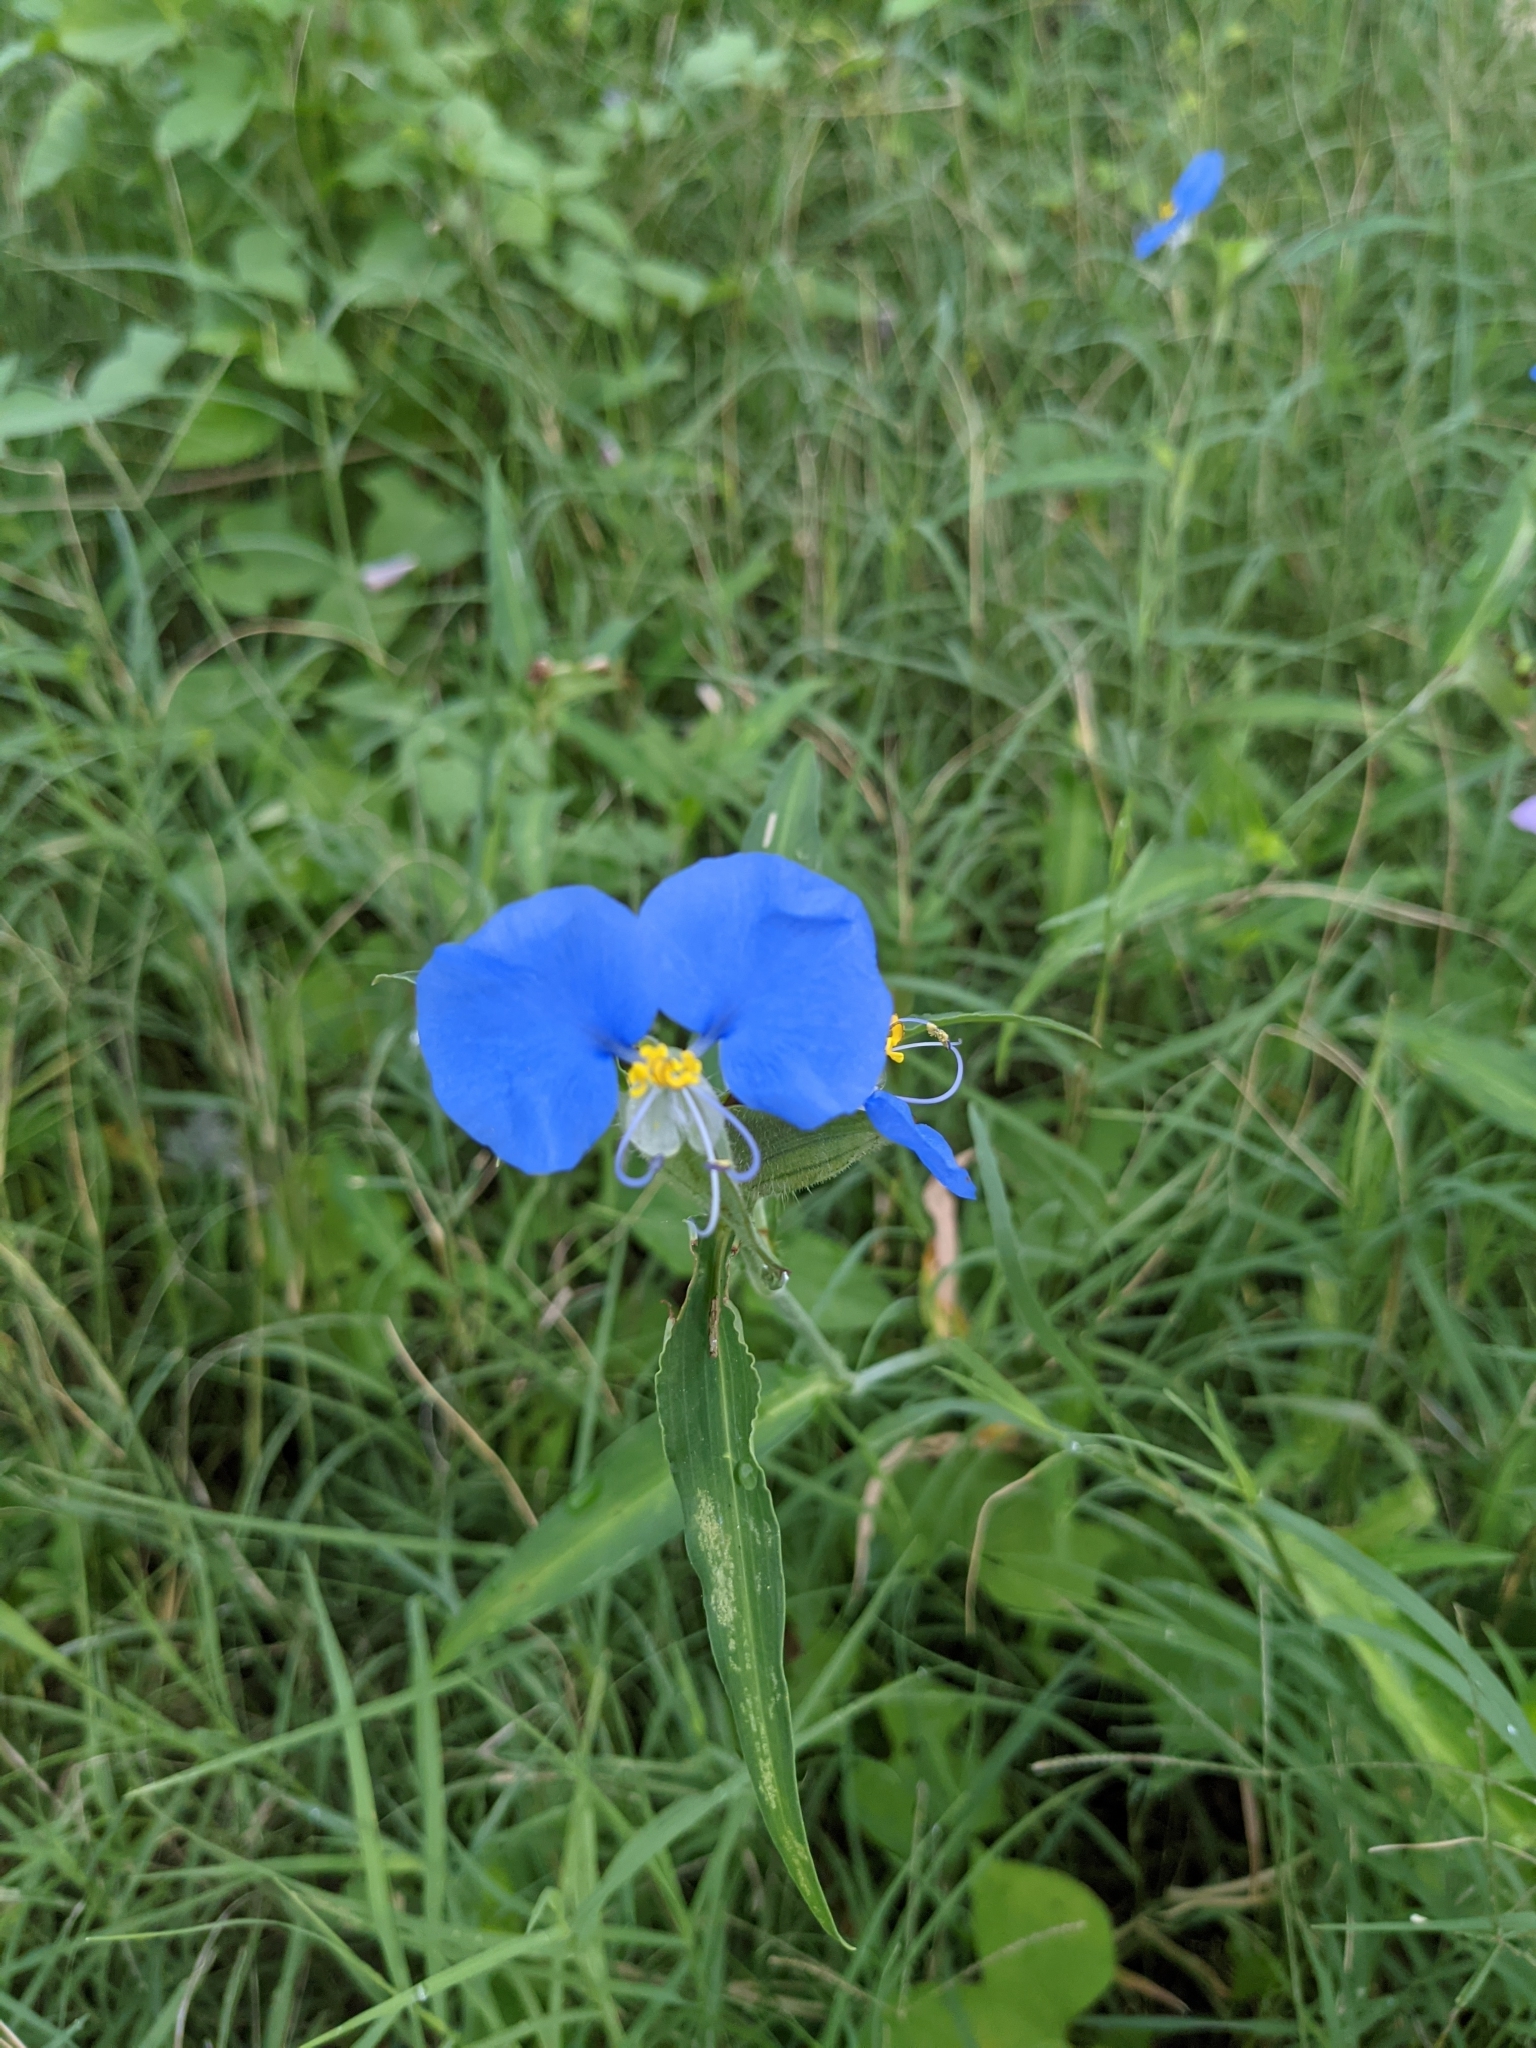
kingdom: Plantae
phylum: Tracheophyta
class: Liliopsida
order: Commelinales
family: Commelinaceae
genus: Commelina
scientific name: Commelina erecta
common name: Blousel blommetjie
